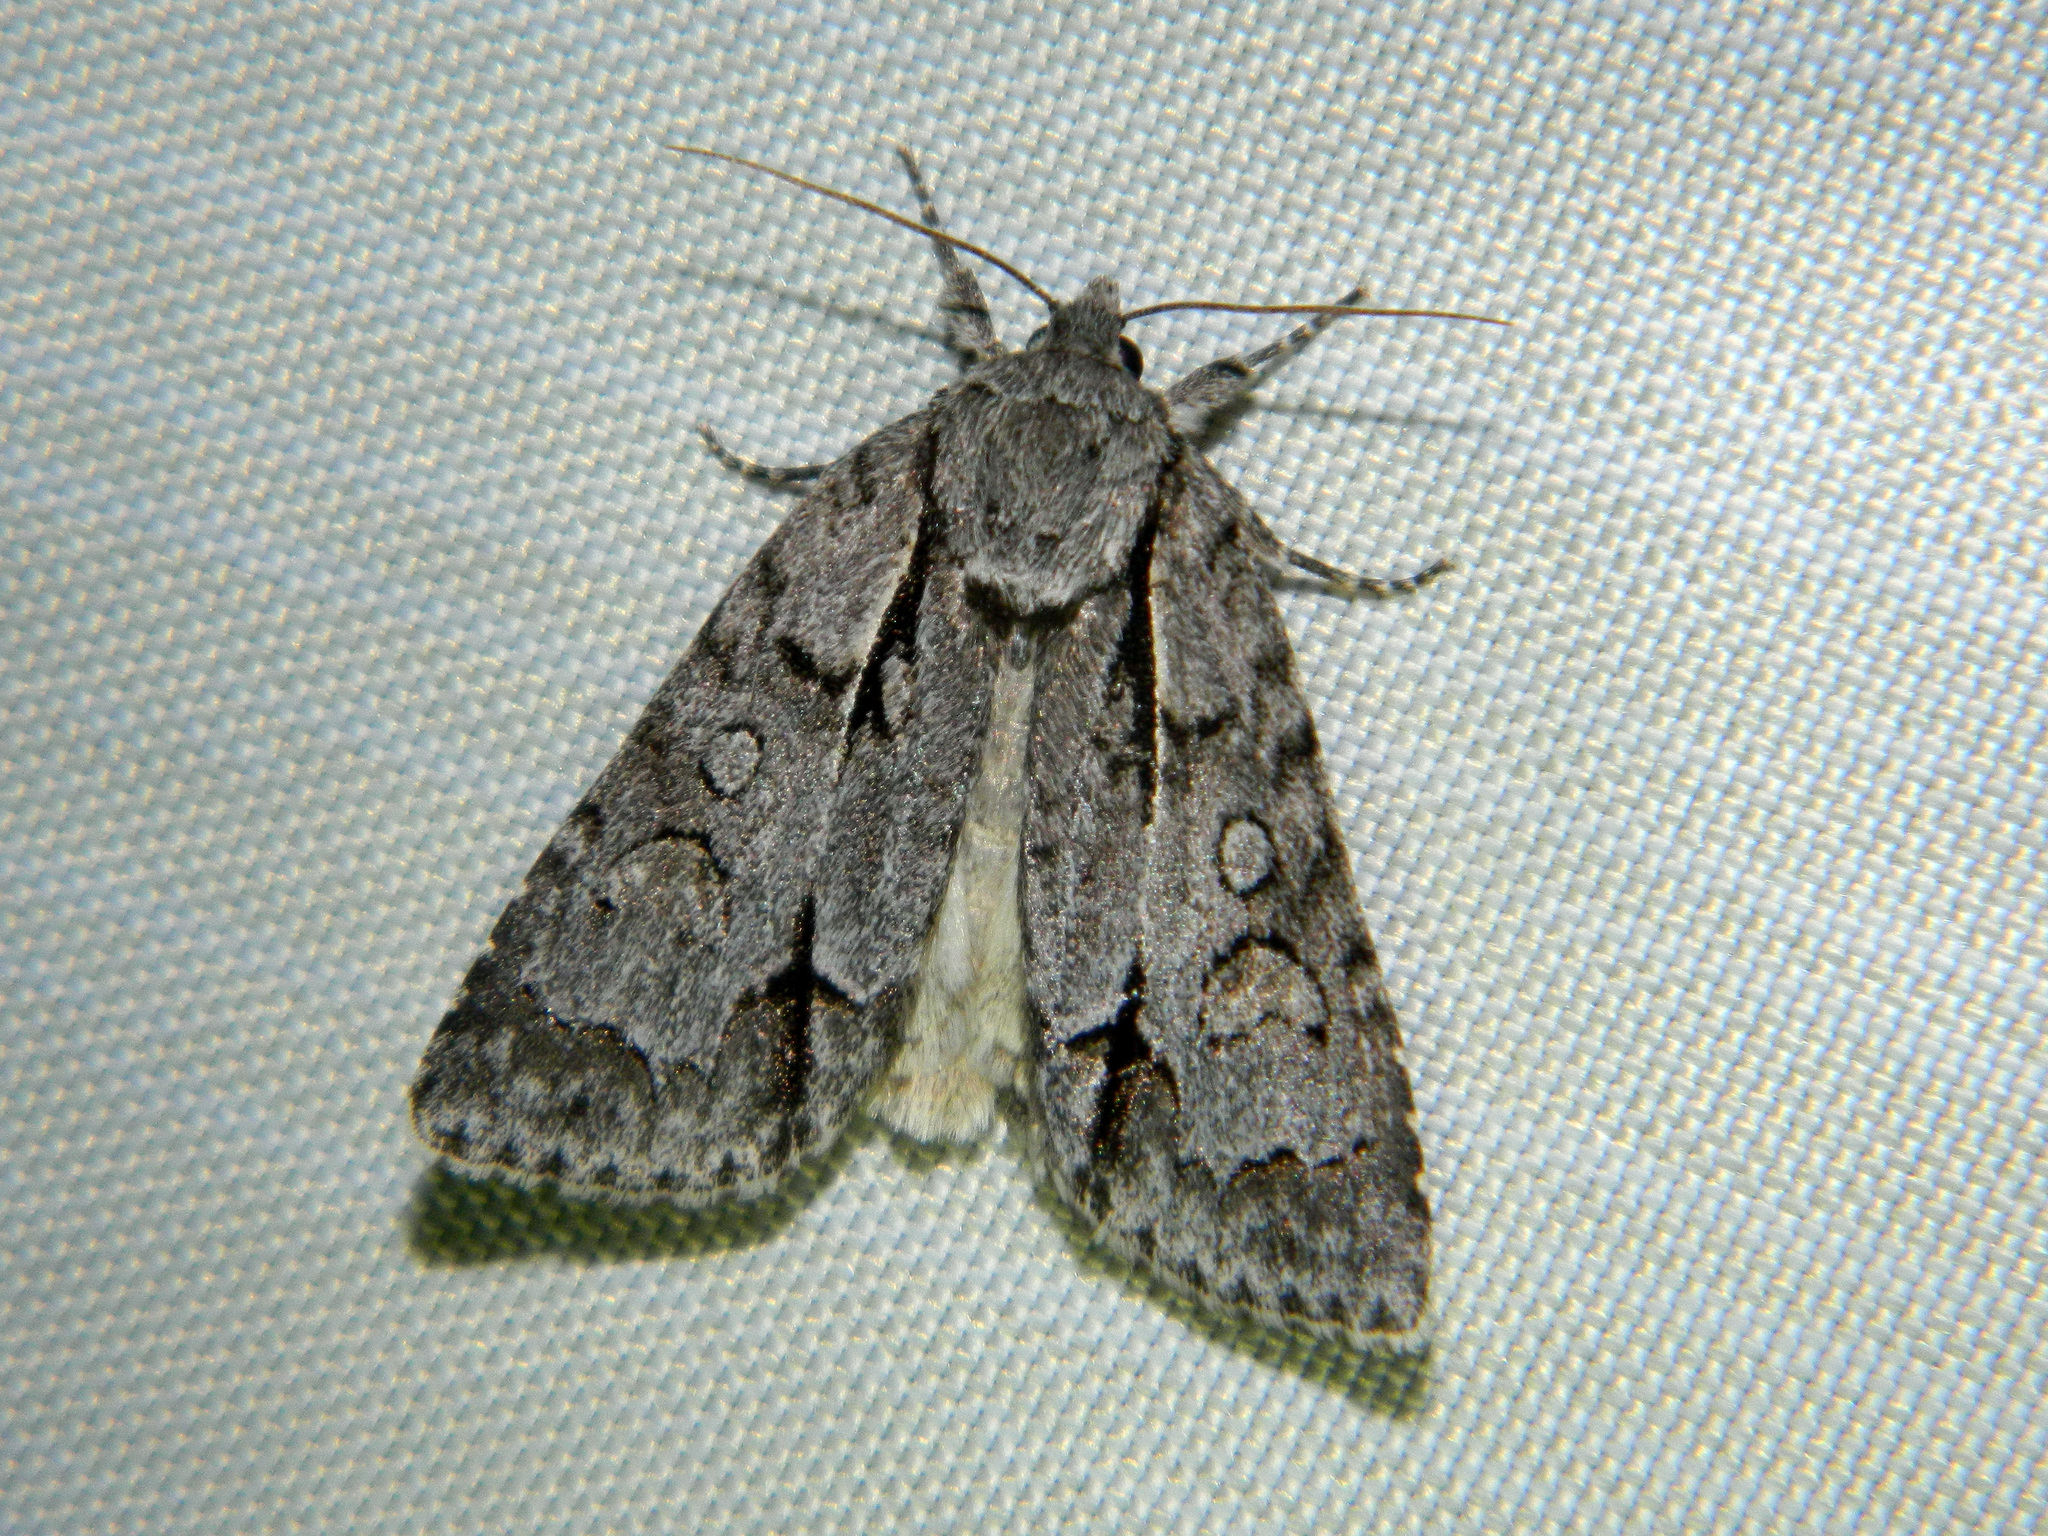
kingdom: Animalia
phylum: Arthropoda
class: Insecta
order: Lepidoptera
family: Noctuidae
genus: Acronicta
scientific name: Acronicta grisea
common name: Gray dagger
